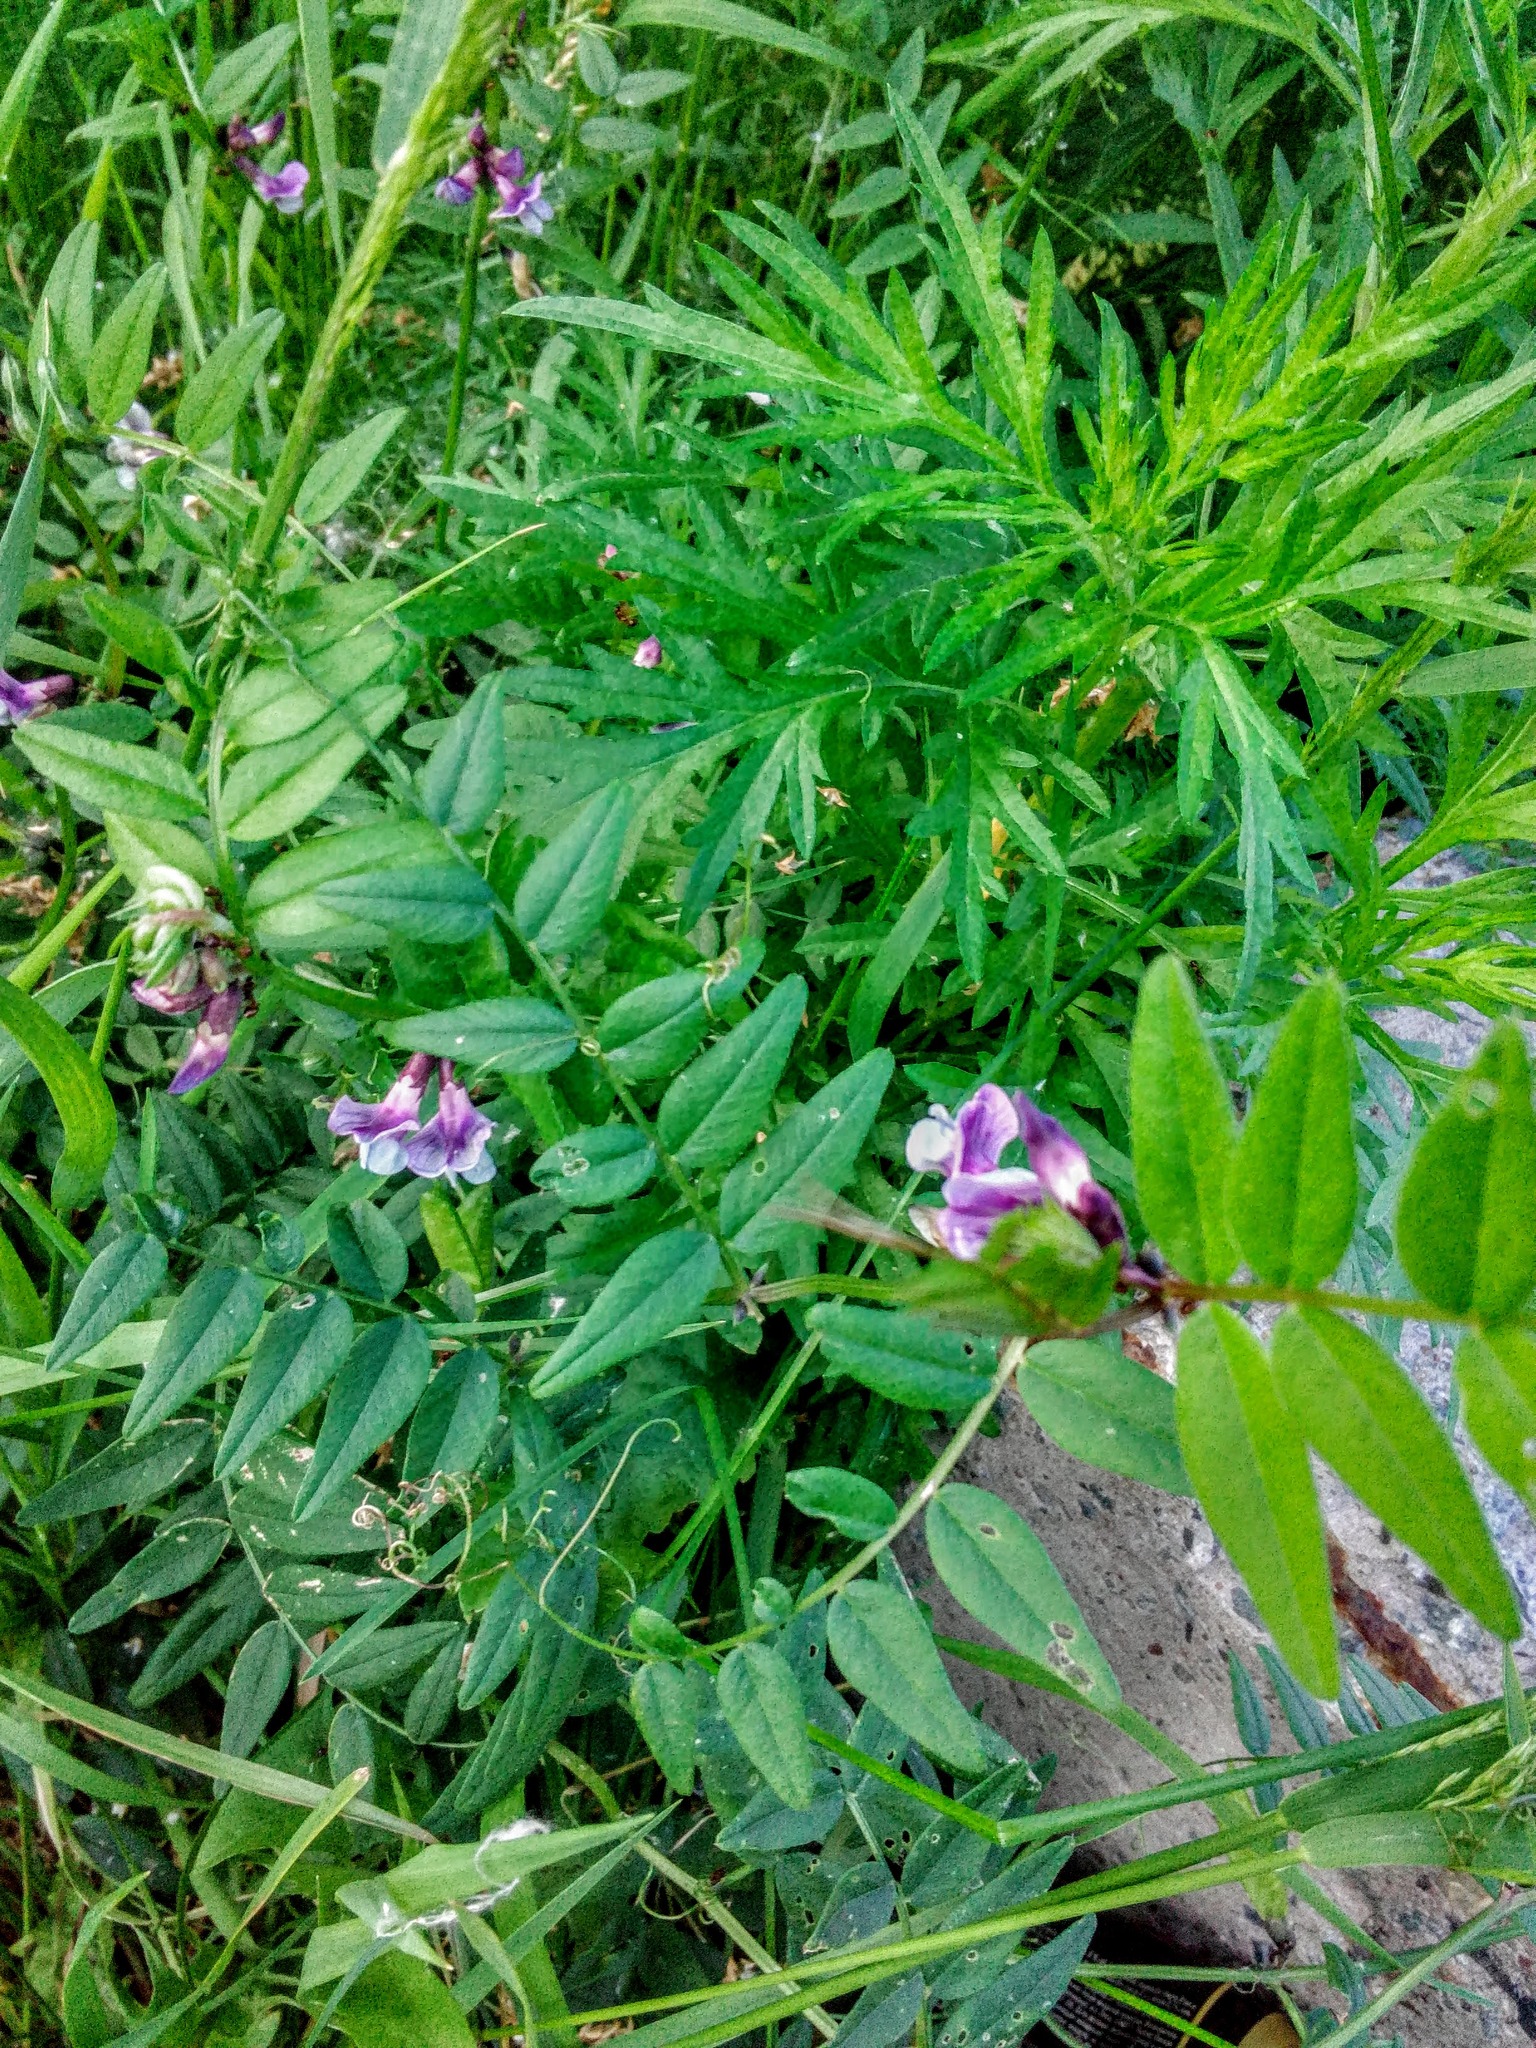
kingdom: Plantae
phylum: Tracheophyta
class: Magnoliopsida
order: Fabales
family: Fabaceae
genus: Vicia
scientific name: Vicia sepium
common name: Bush vetch
